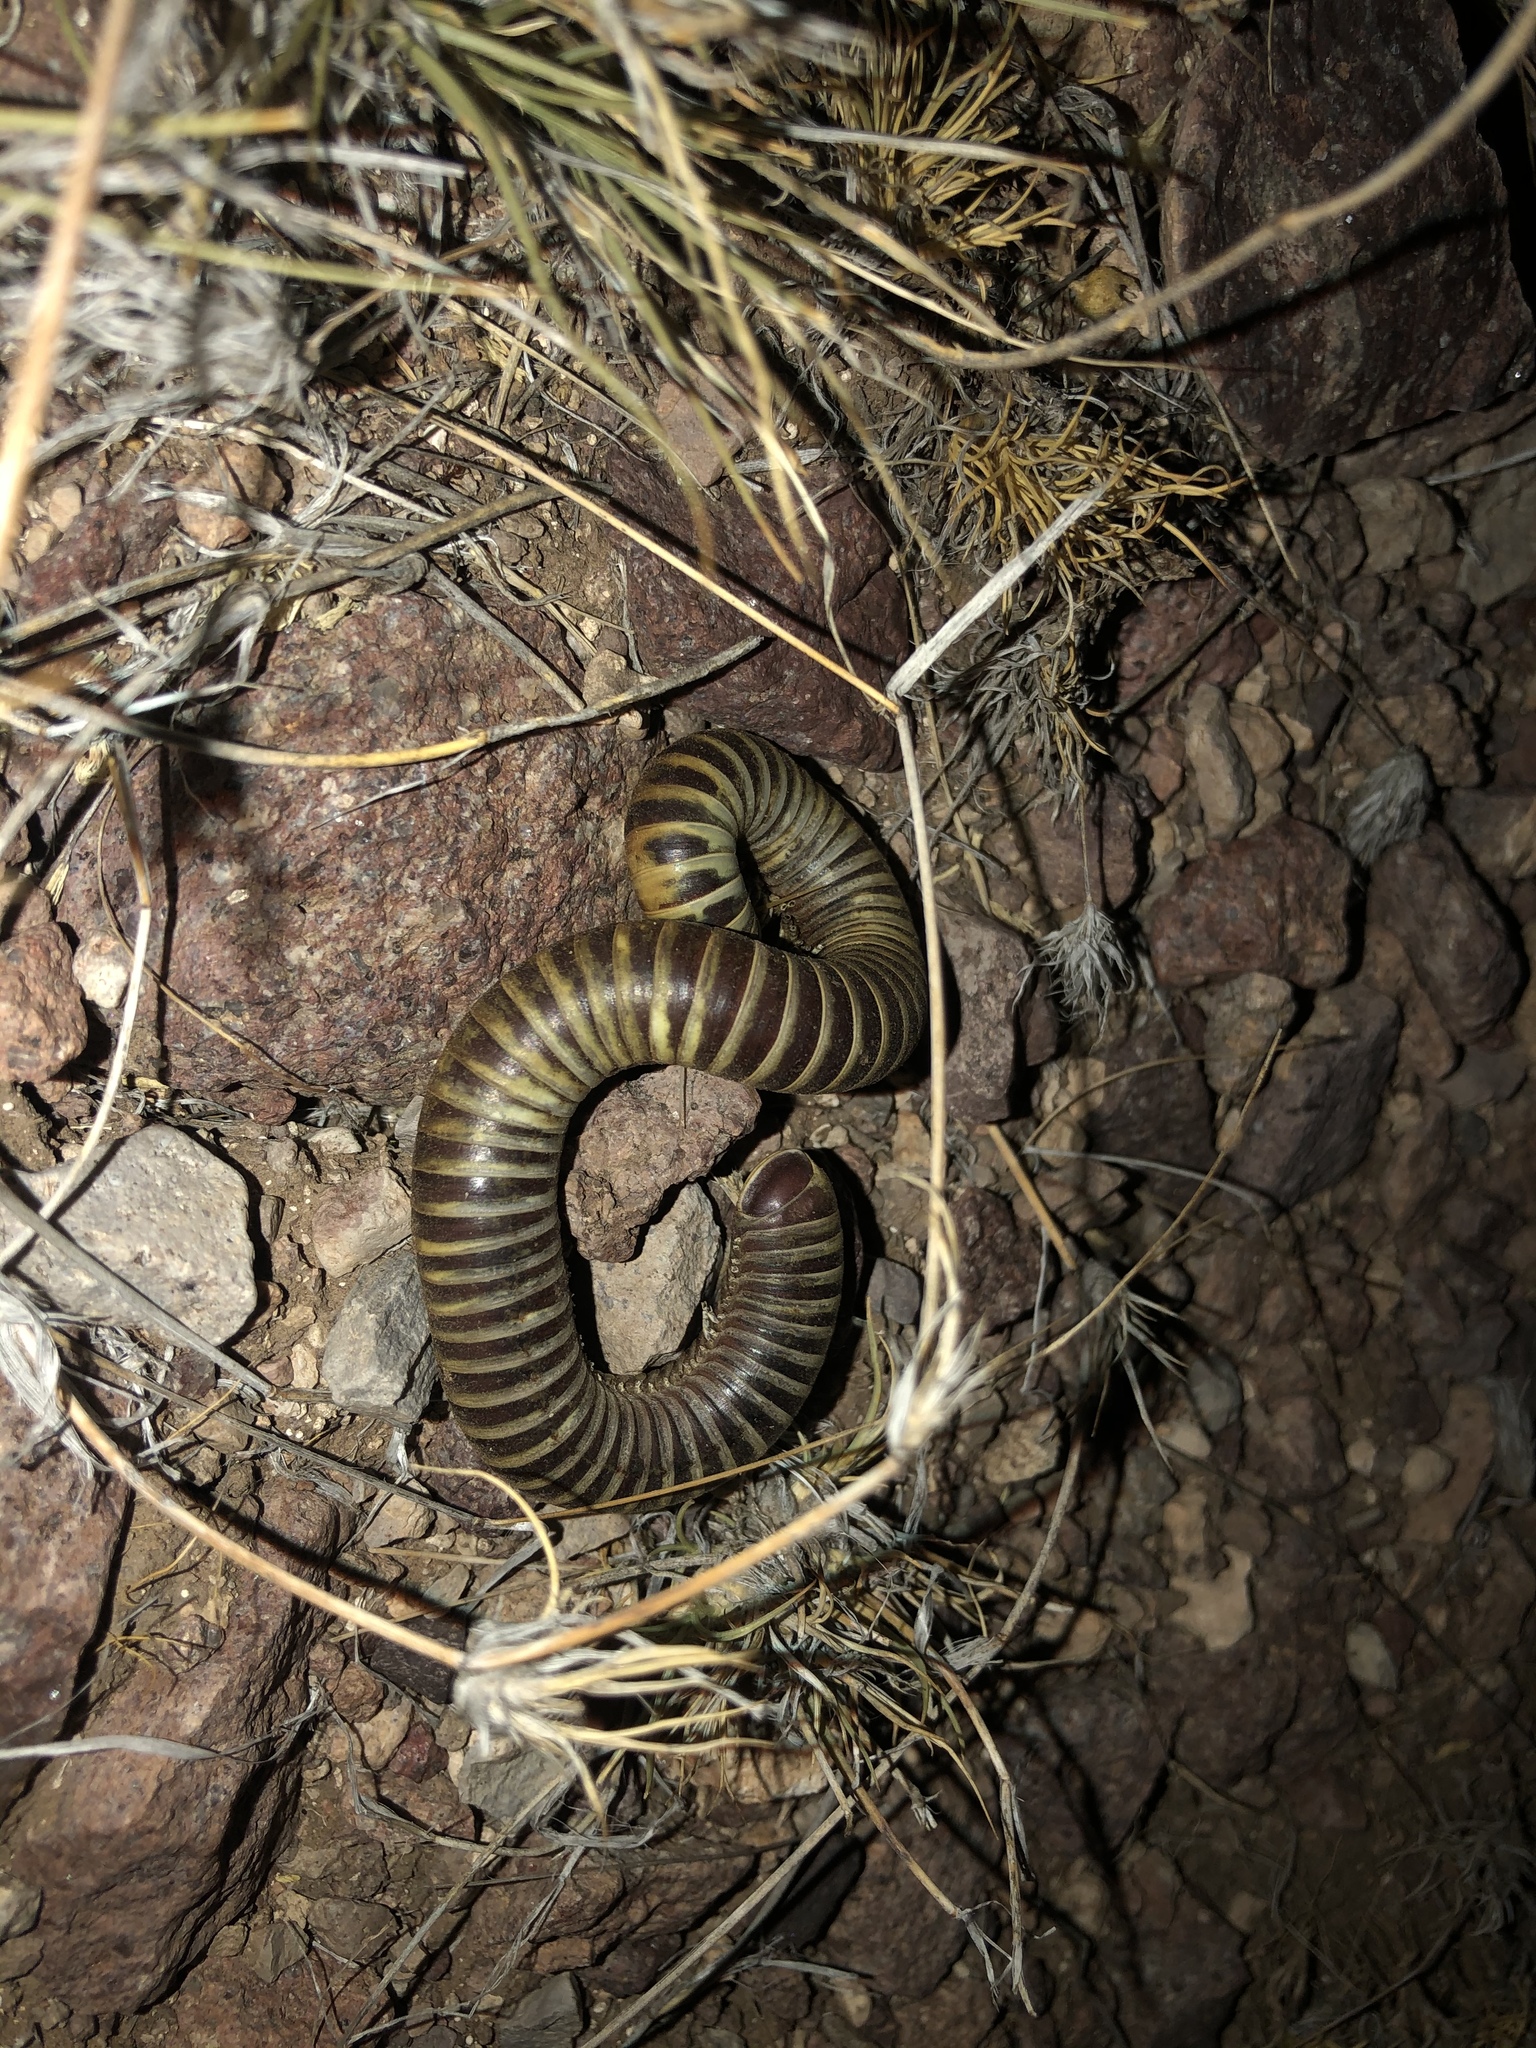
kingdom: Animalia
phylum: Arthropoda
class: Diplopoda
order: Spirostreptida
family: Spirostreptidae
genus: Orthoporus
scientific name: Orthoporus ornatus
